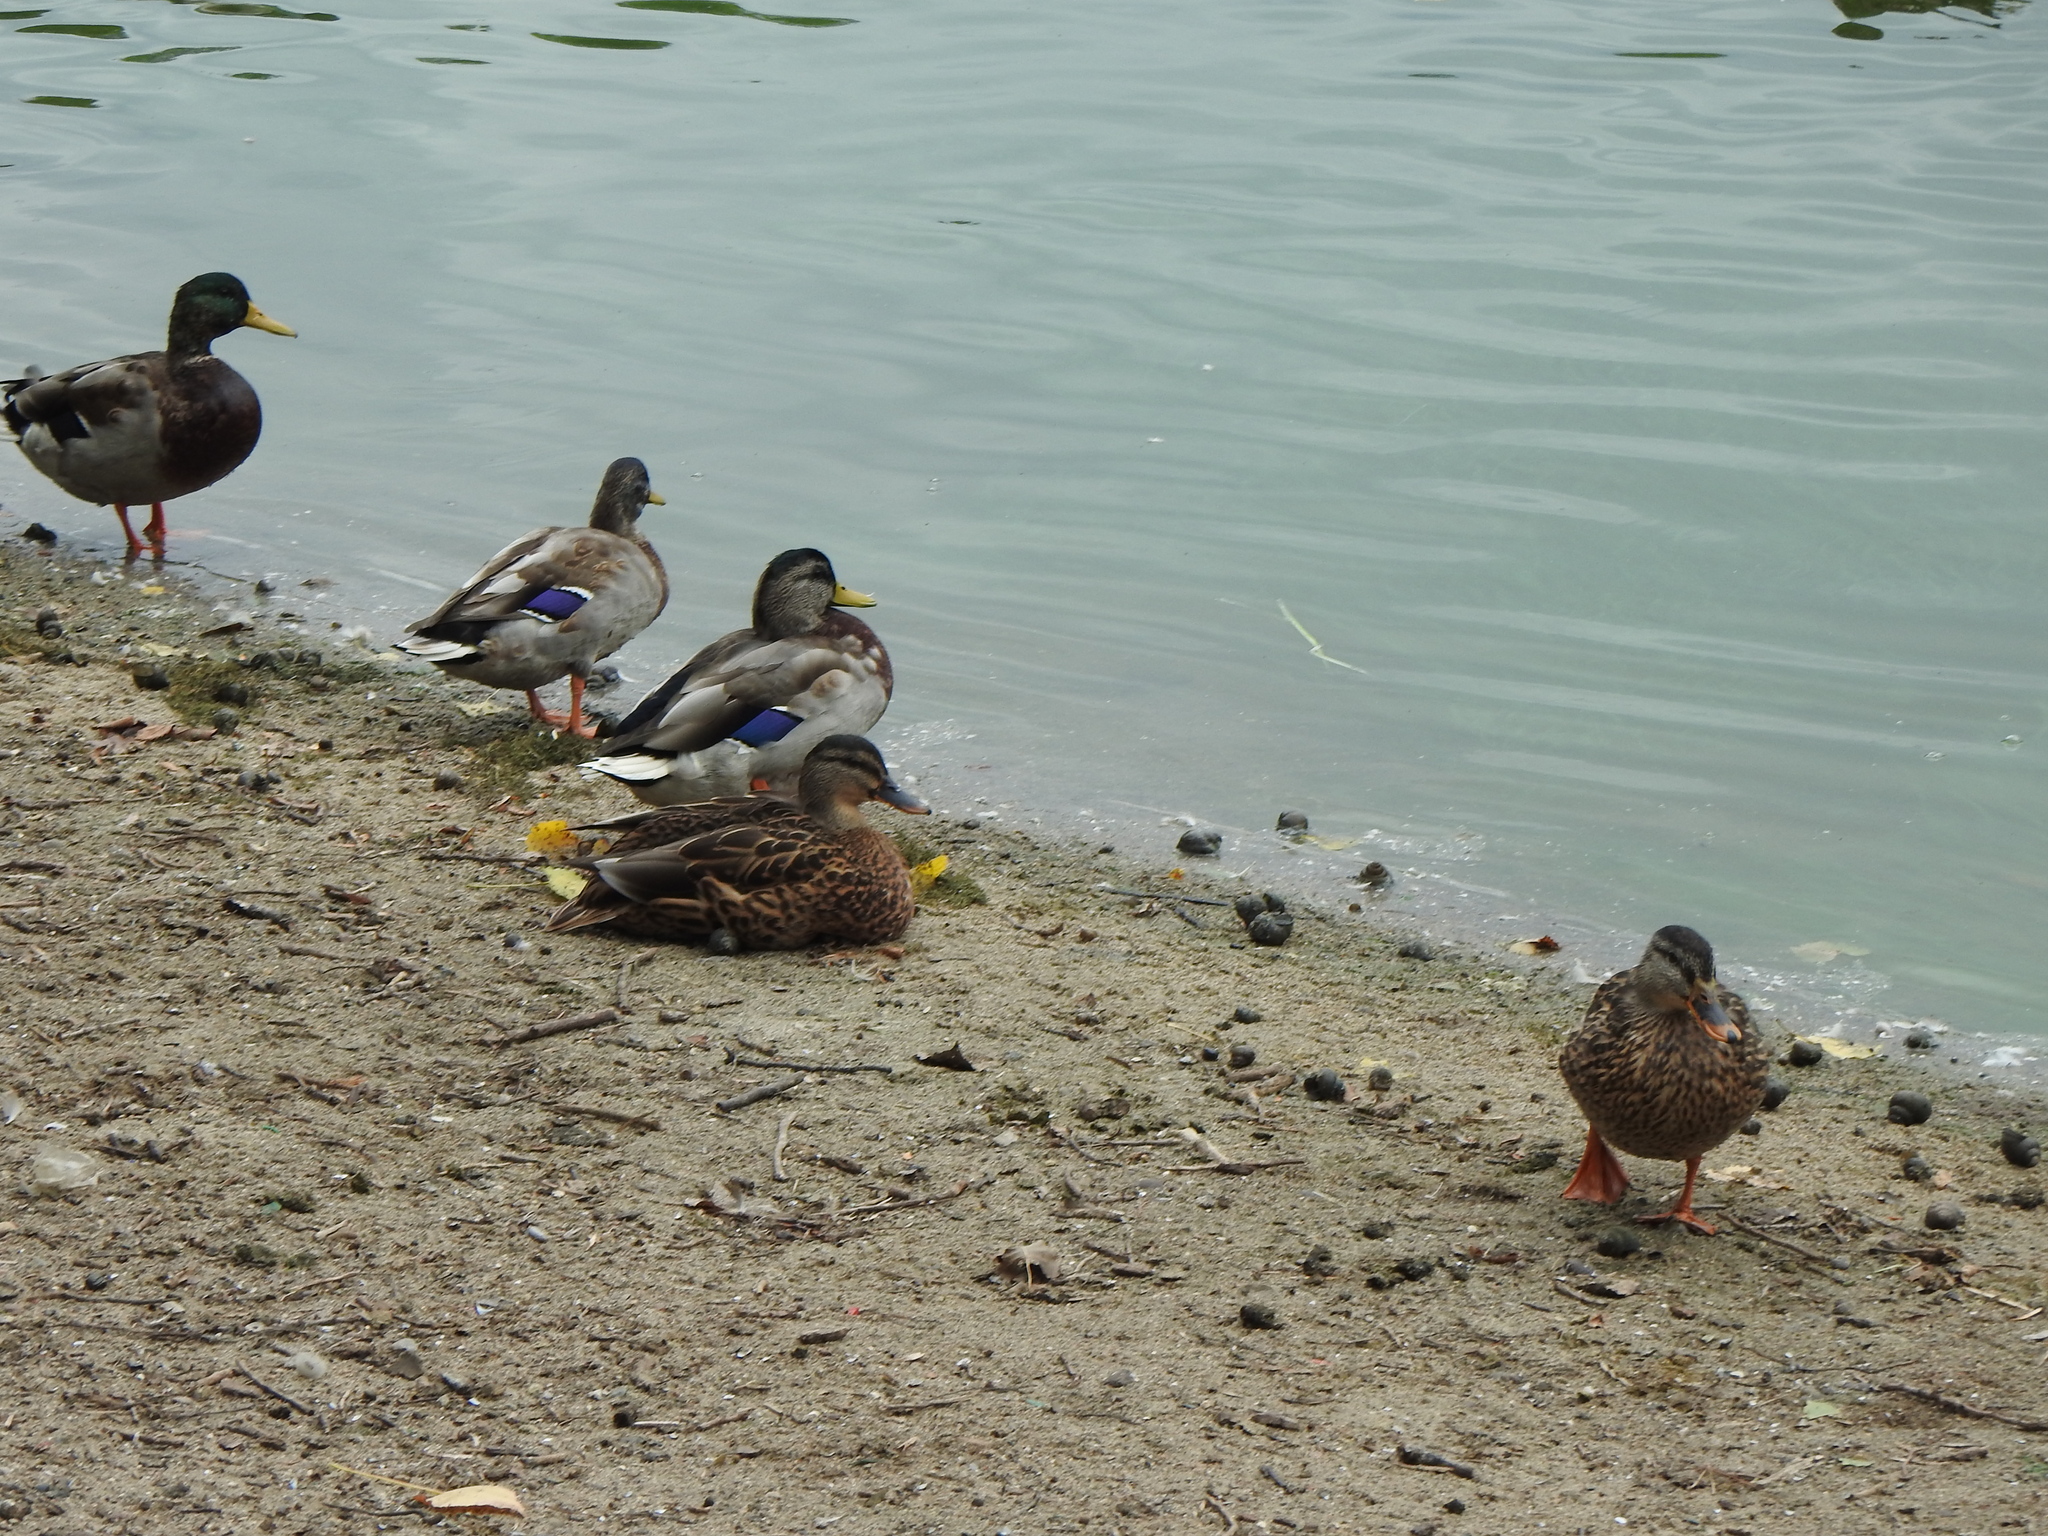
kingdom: Animalia
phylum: Chordata
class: Aves
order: Anseriformes
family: Anatidae
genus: Anas
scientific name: Anas platyrhynchos
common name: Mallard
